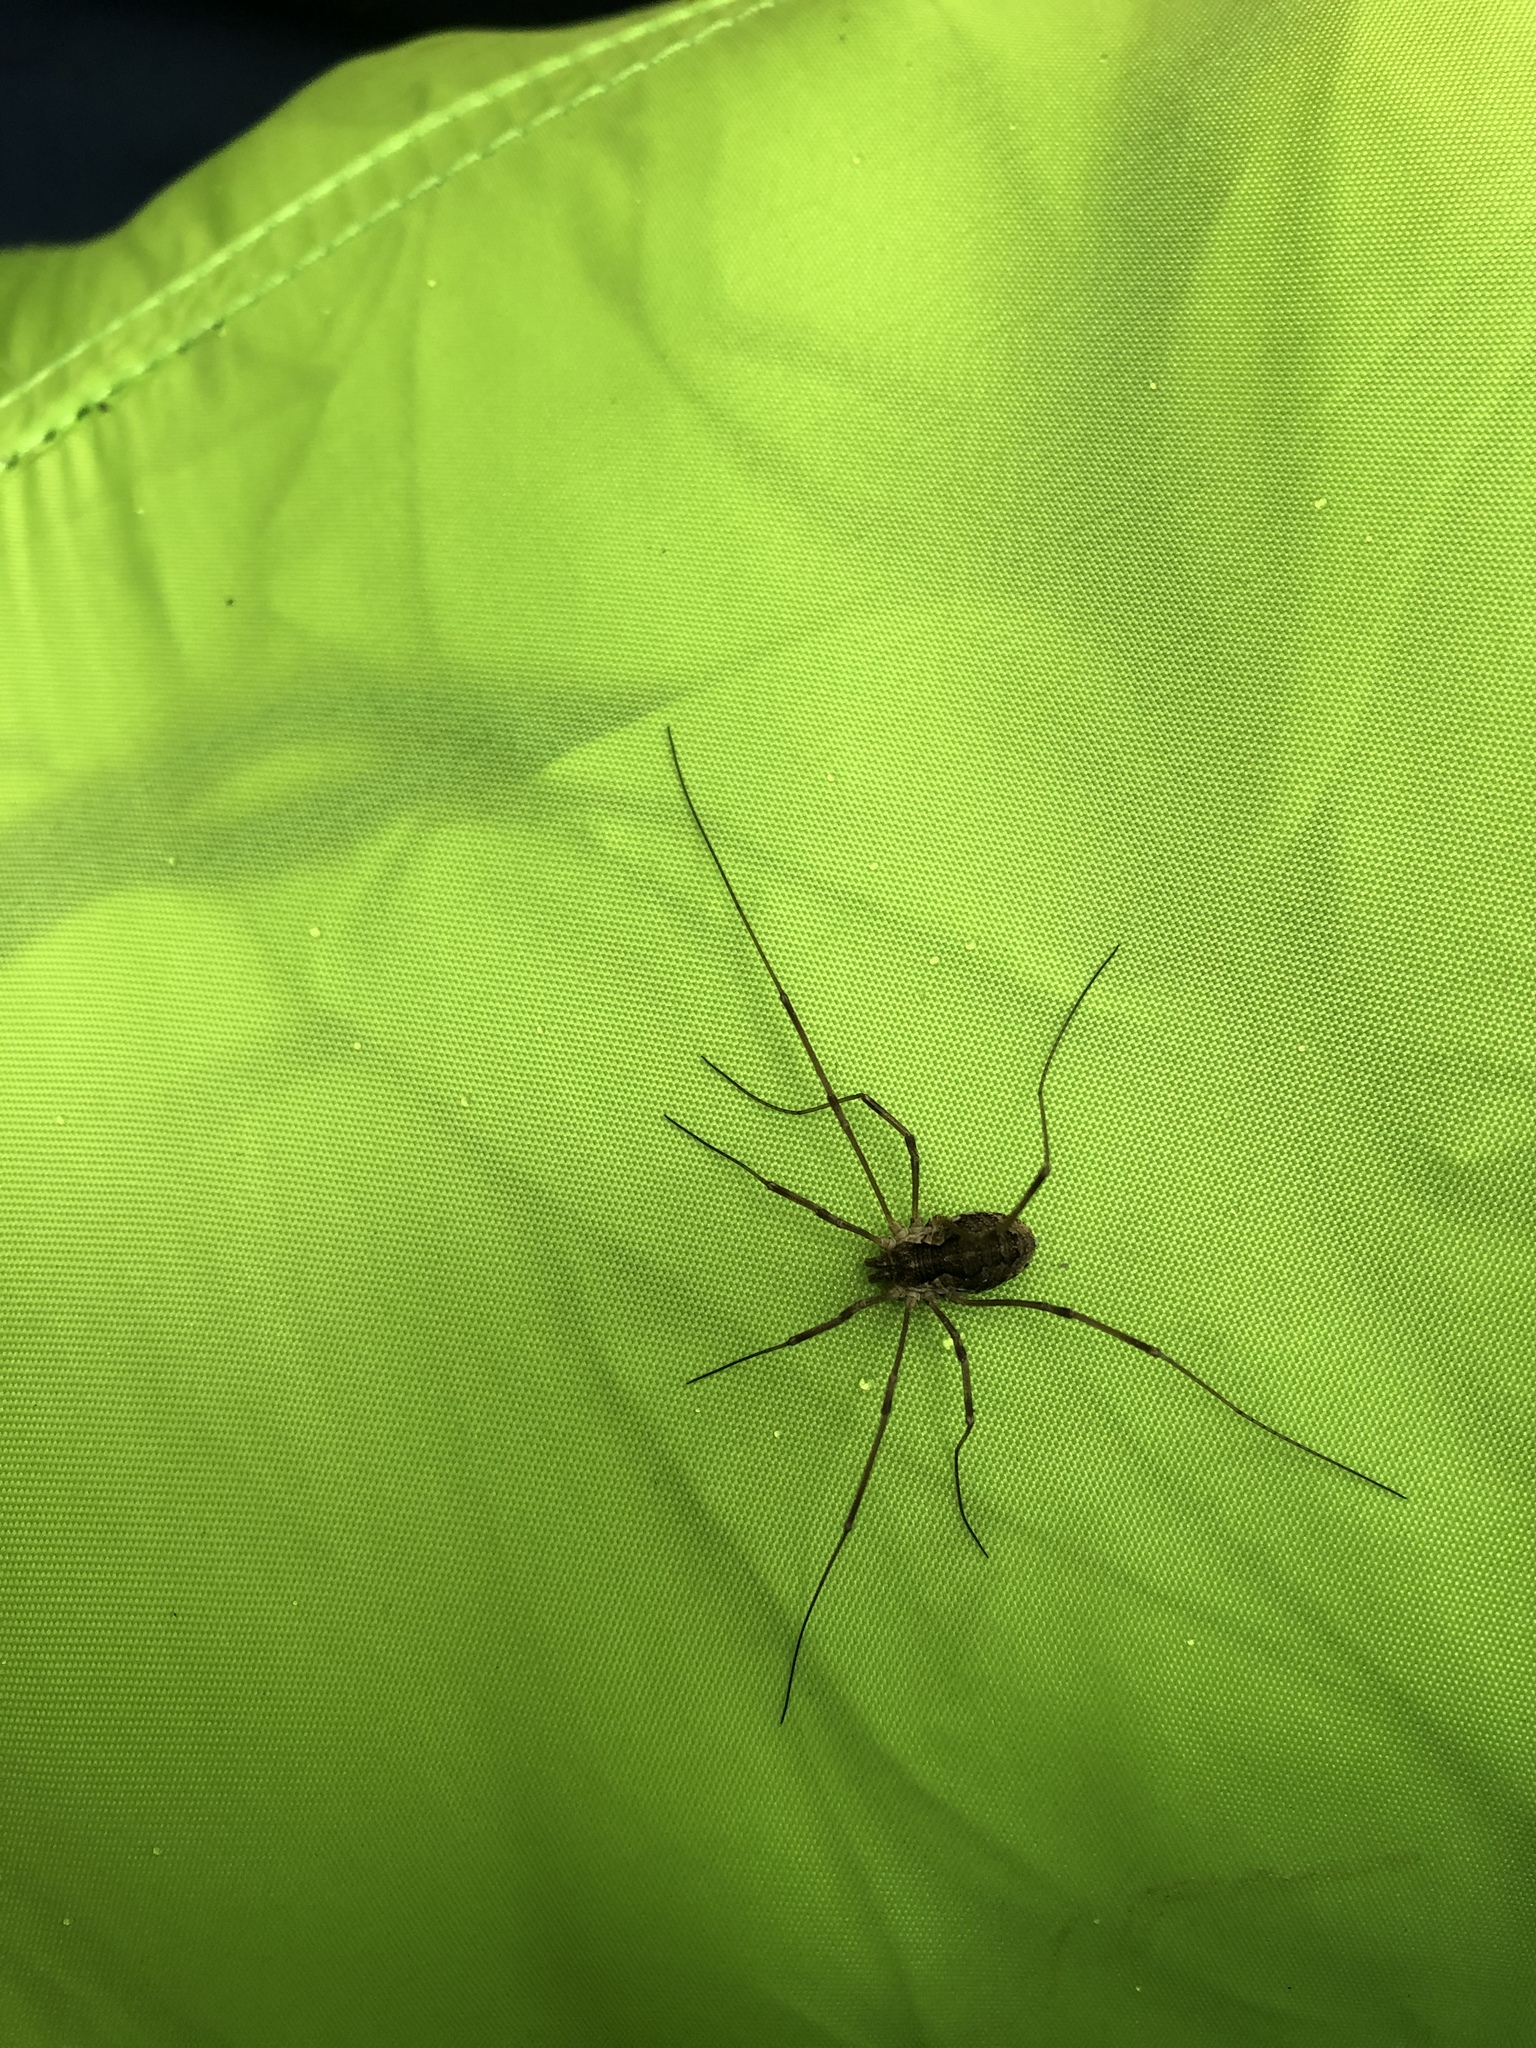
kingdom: Animalia
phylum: Arthropoda
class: Arachnida
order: Opiliones
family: Phalangiidae
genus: Mitopus
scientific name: Mitopus morio
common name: Saddleback harvestman
